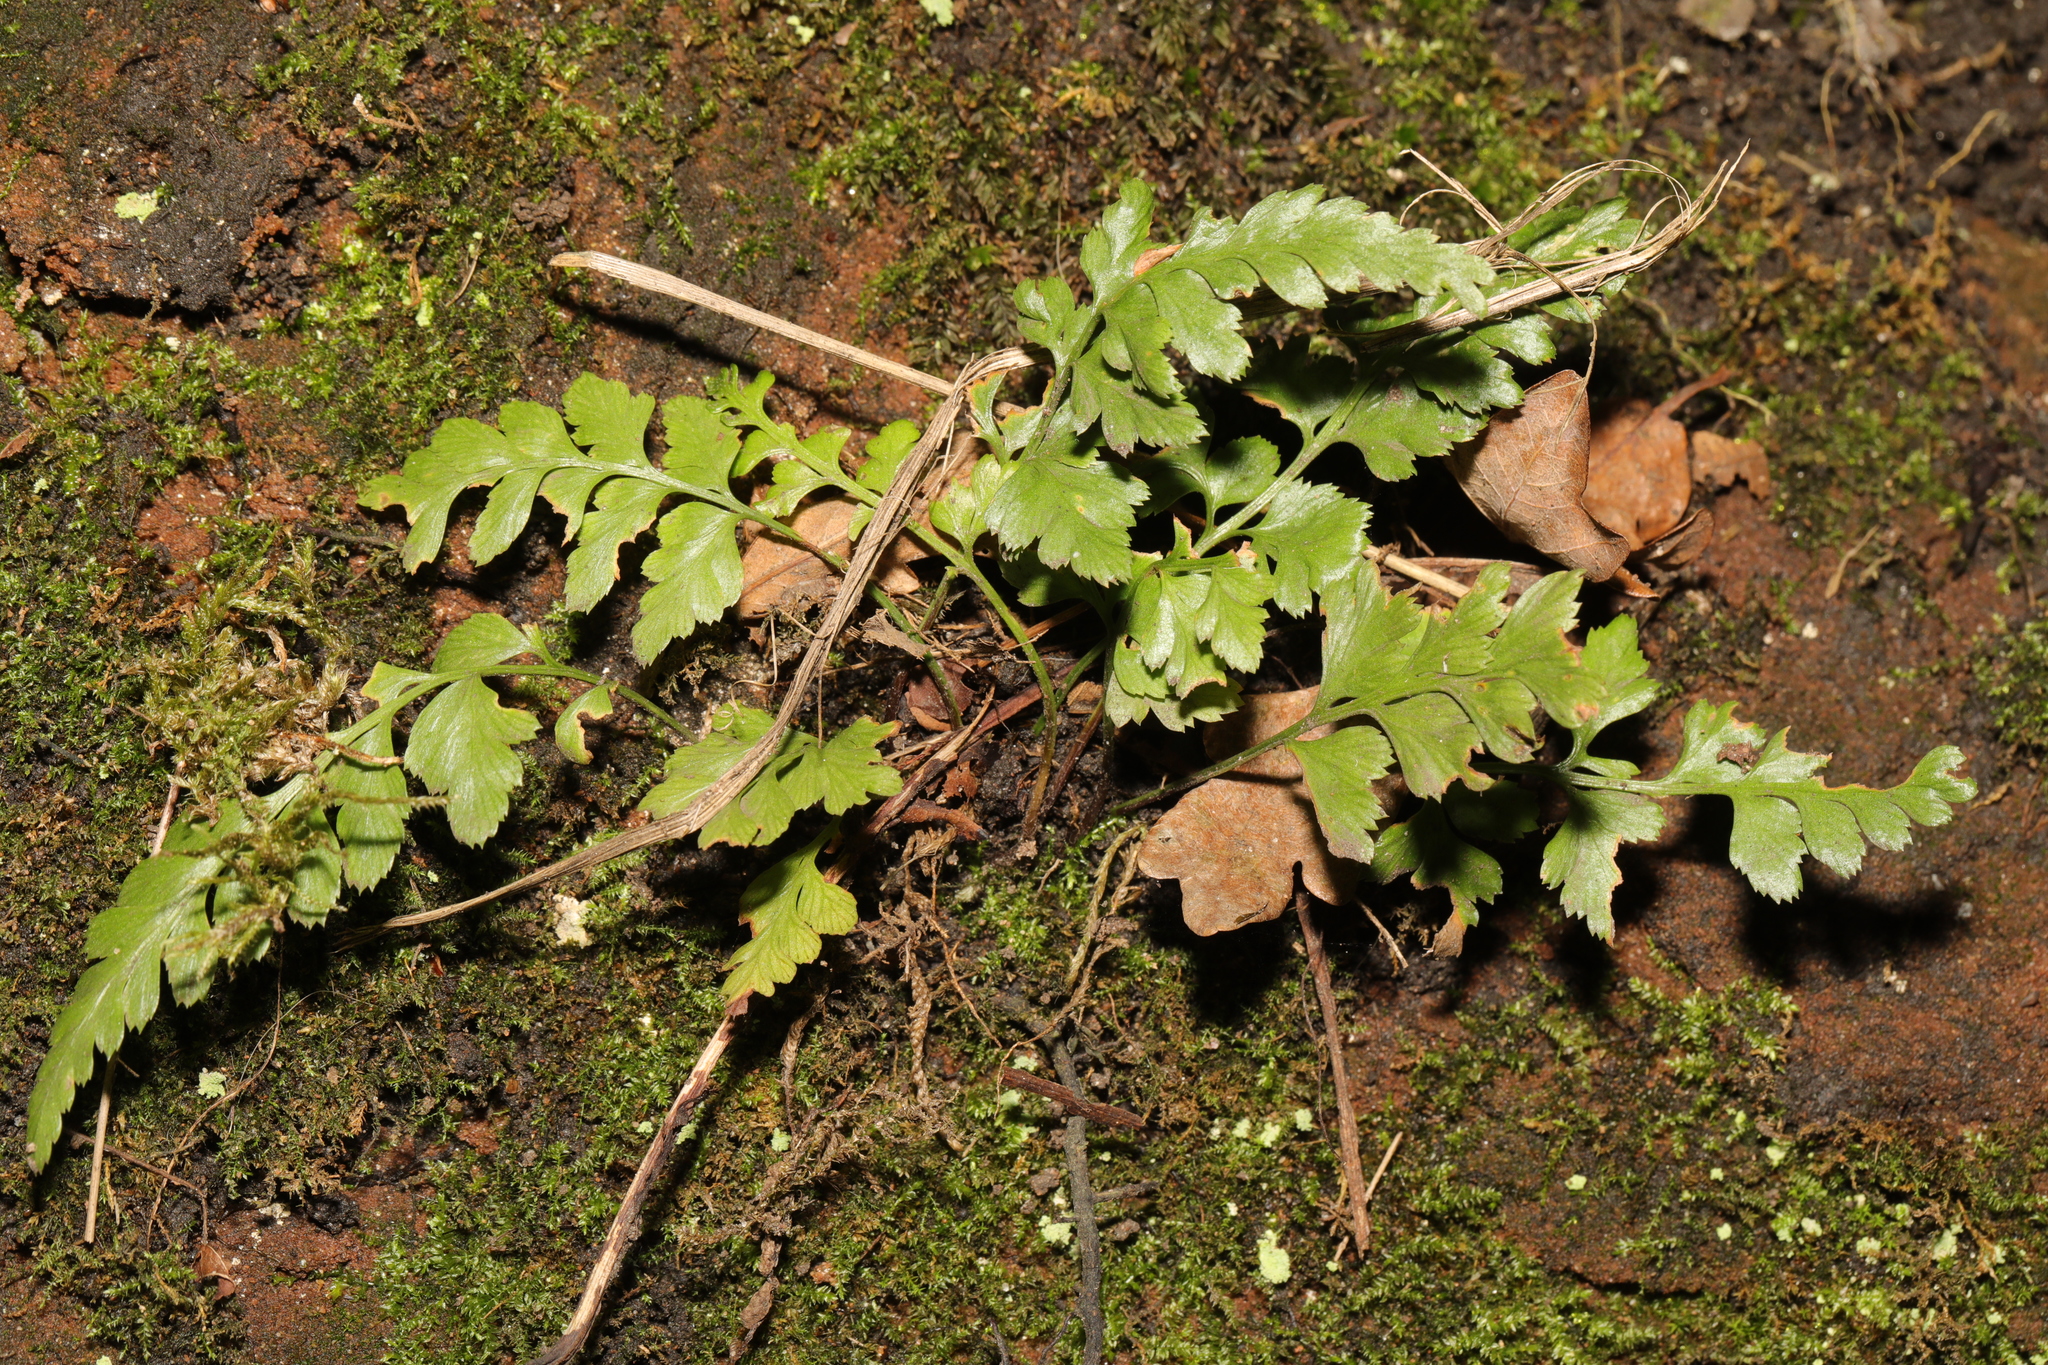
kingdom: Plantae
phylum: Tracheophyta
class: Polypodiopsida
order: Polypodiales
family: Aspleniaceae
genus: Asplenium
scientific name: Asplenium adiantum-nigrum
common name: Black spleenwort
